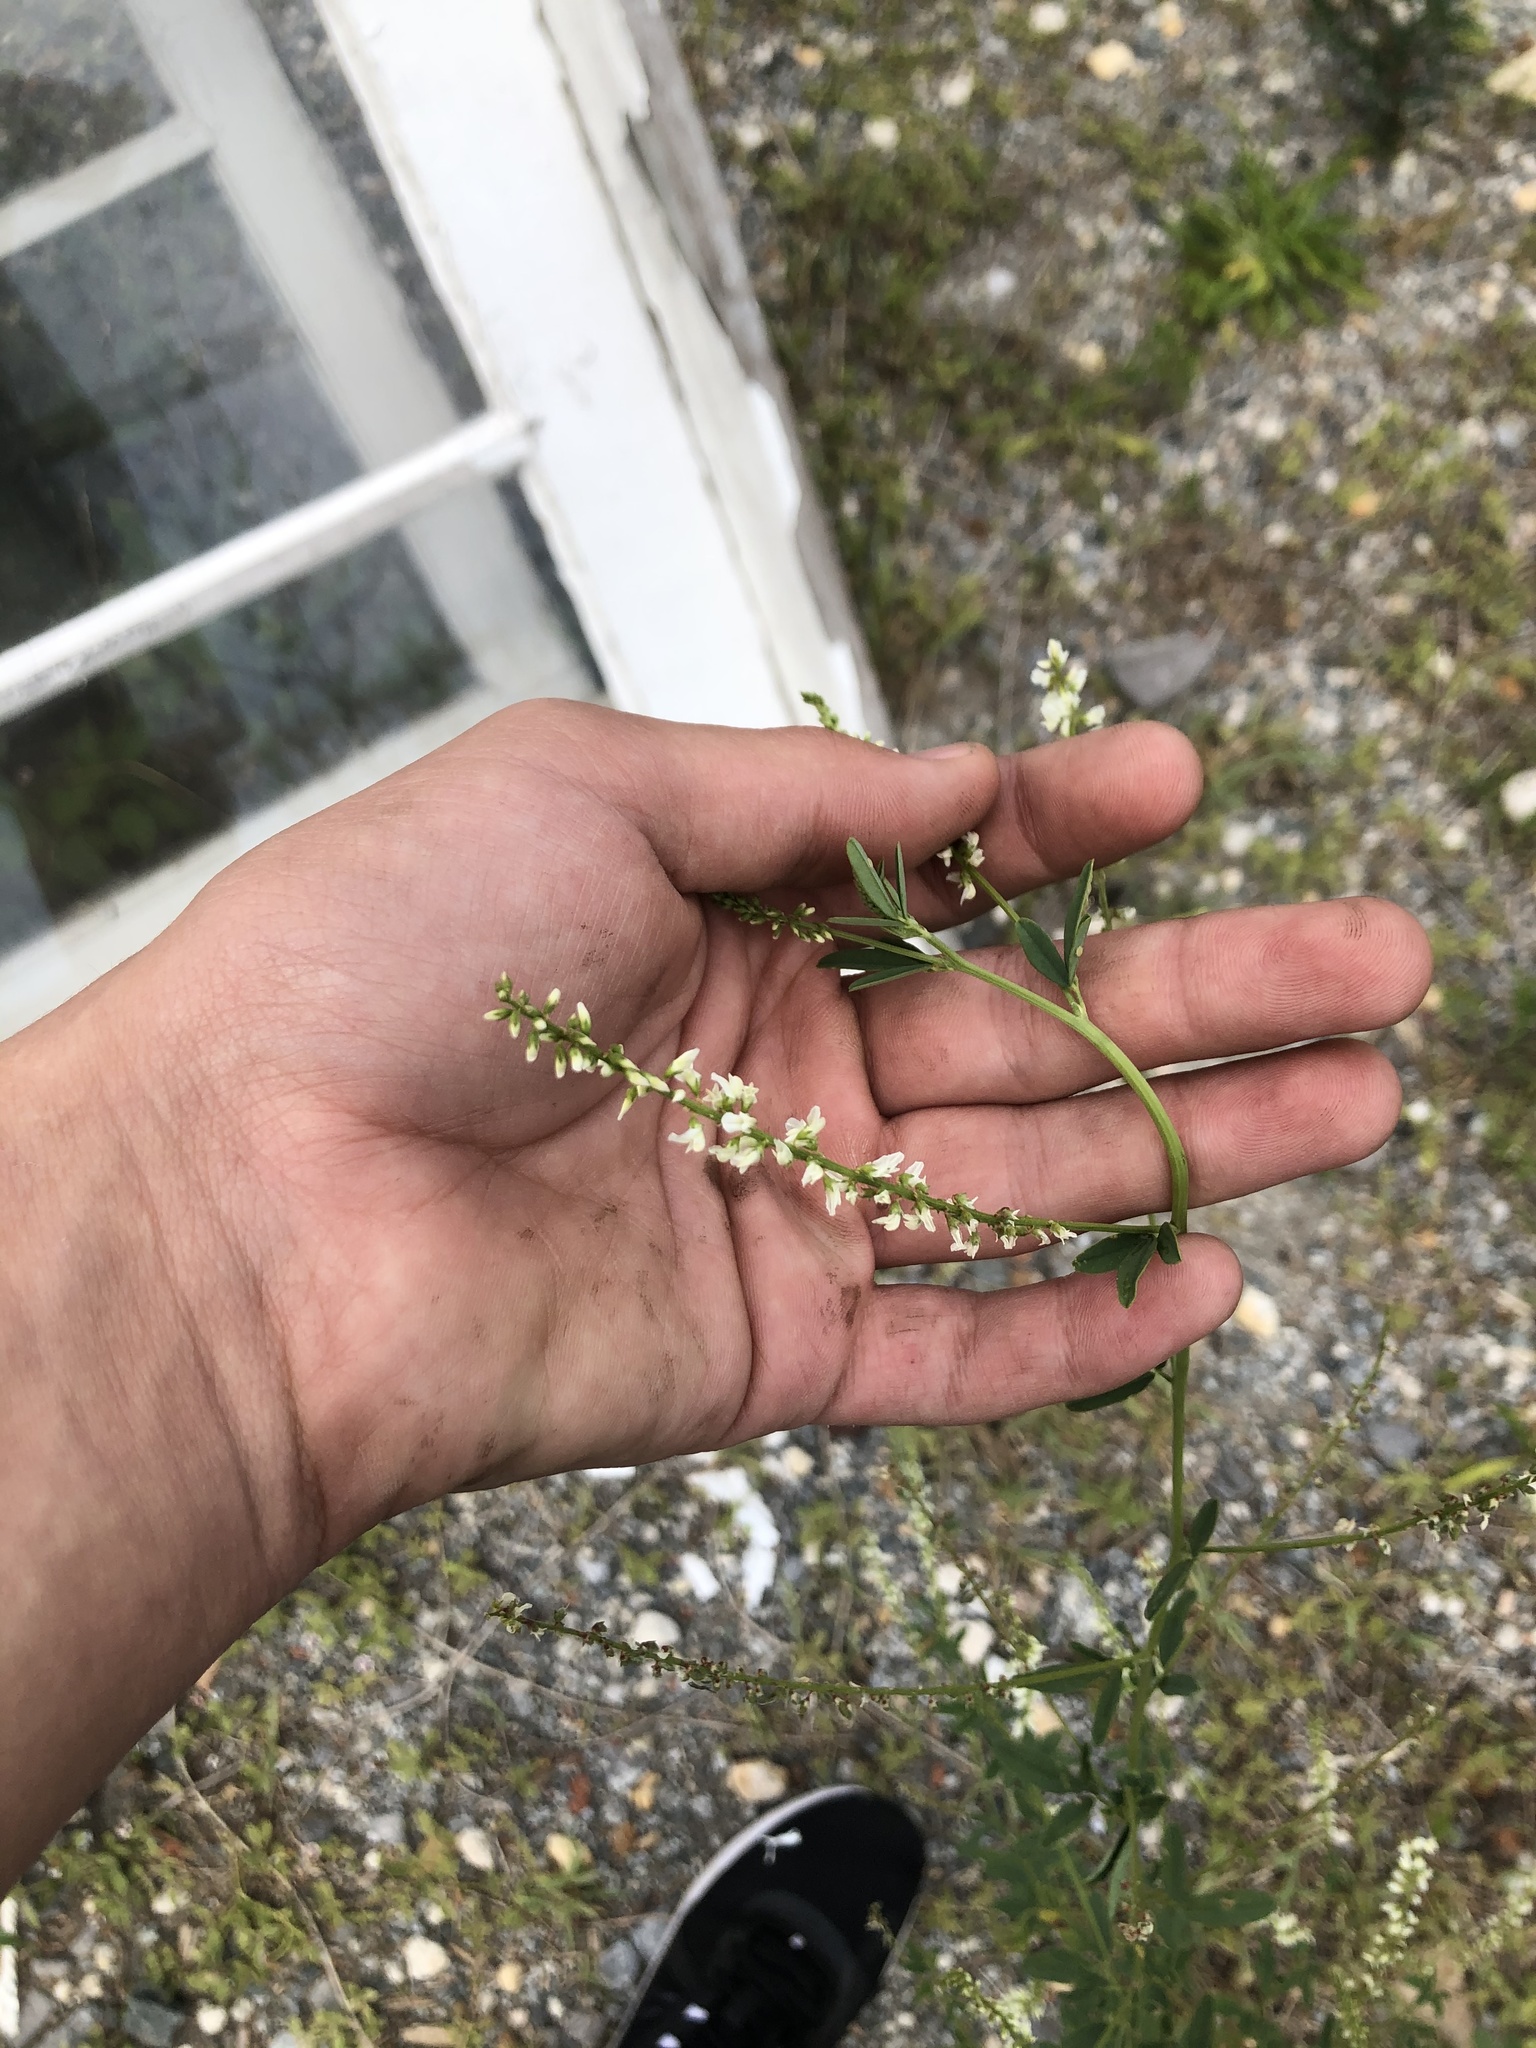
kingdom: Plantae
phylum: Tracheophyta
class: Magnoliopsida
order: Fabales
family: Fabaceae
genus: Melilotus
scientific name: Melilotus albus
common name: White melilot
